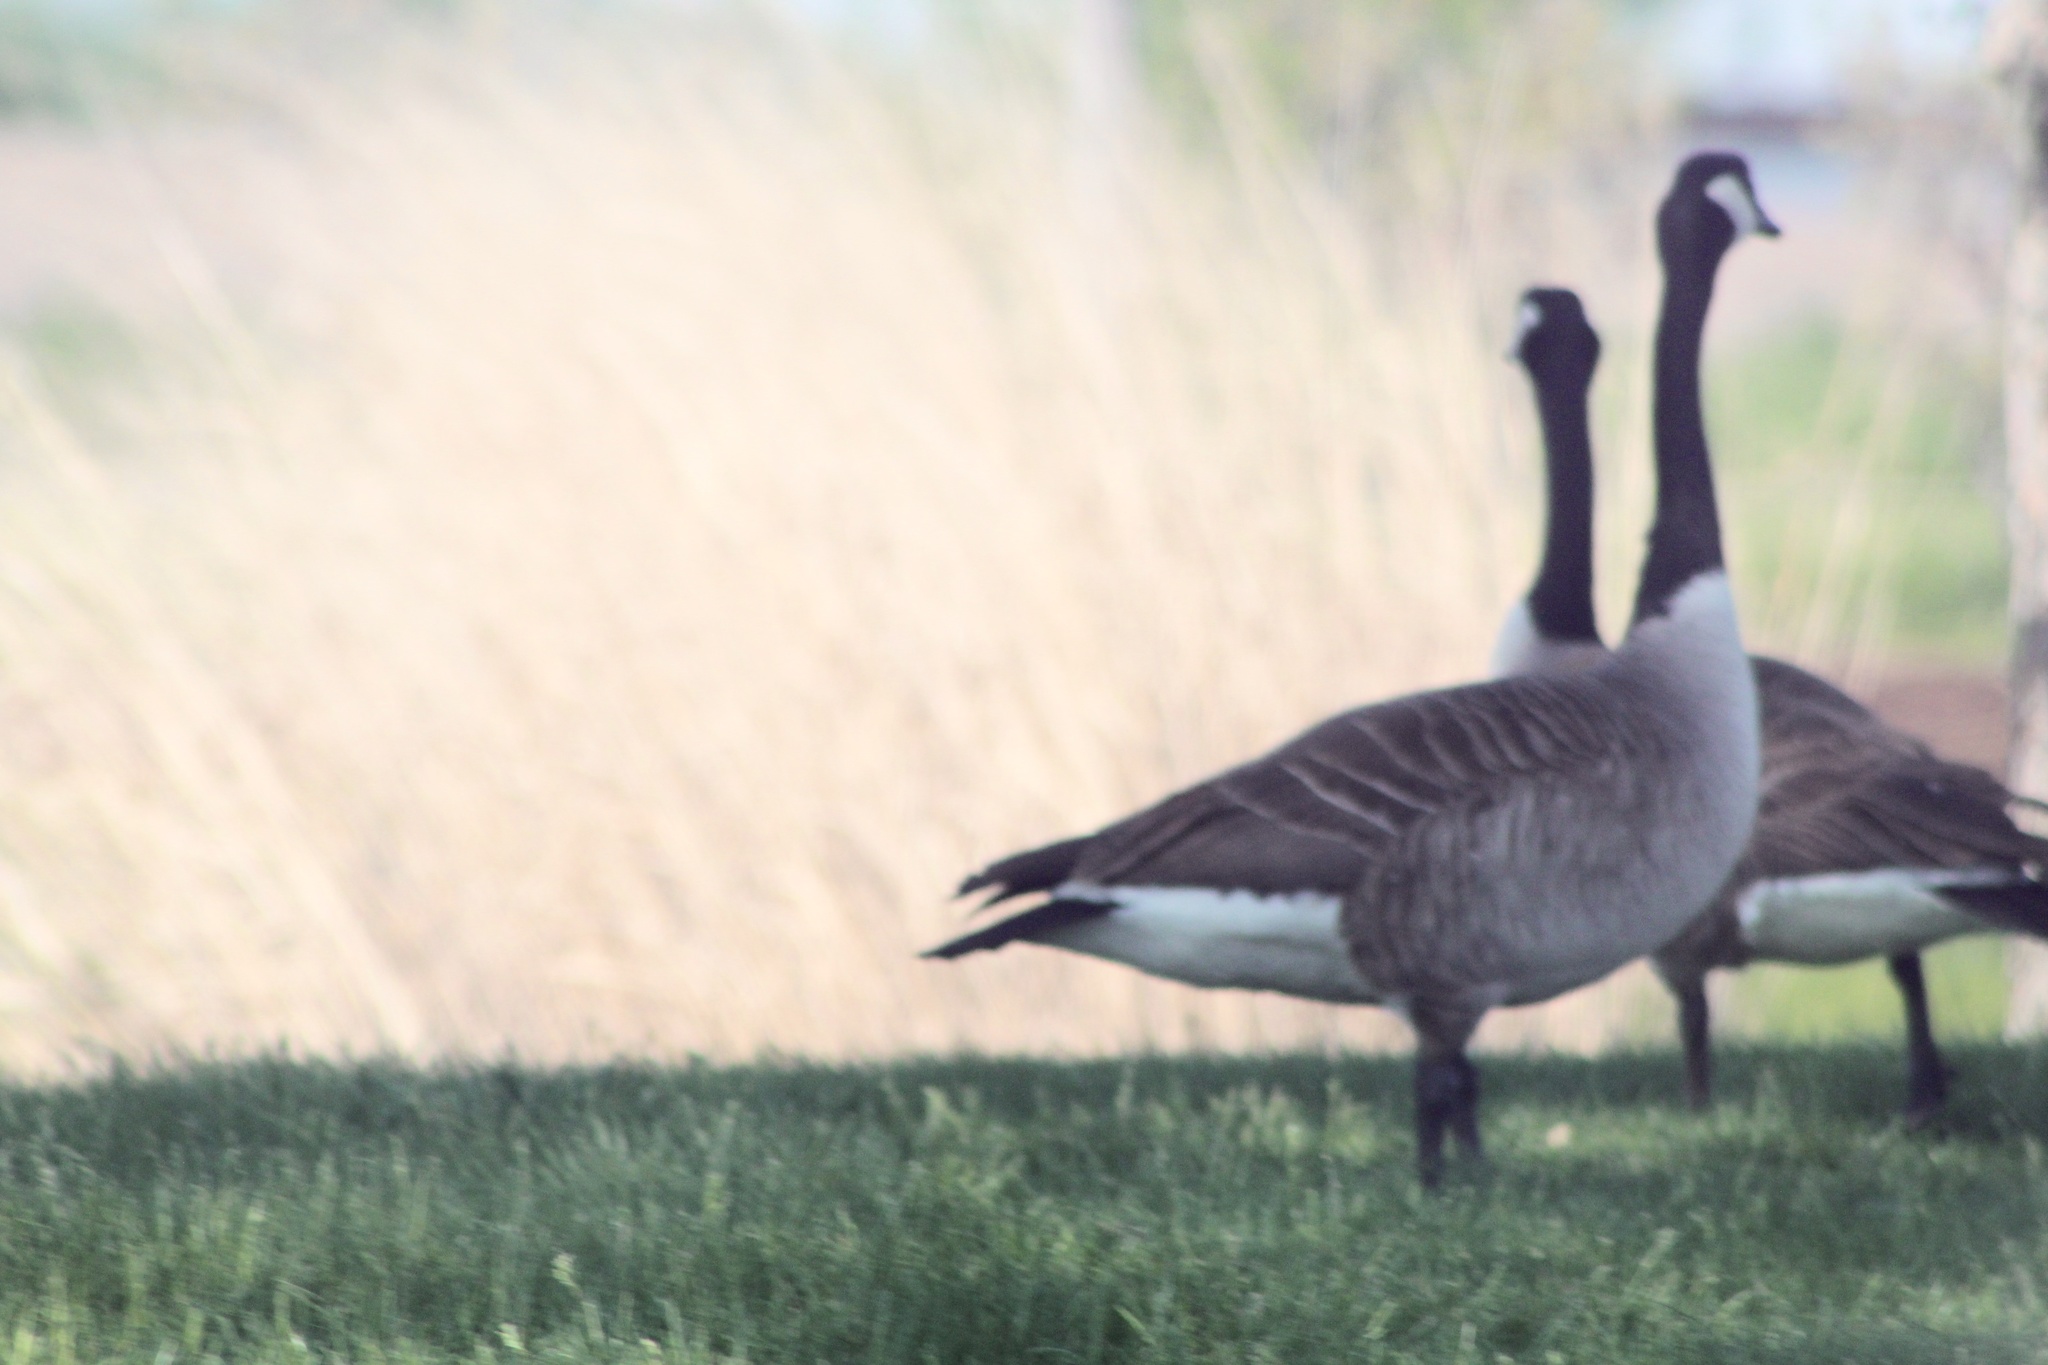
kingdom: Animalia
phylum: Chordata
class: Aves
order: Anseriformes
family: Anatidae
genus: Branta
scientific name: Branta canadensis
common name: Canada goose
